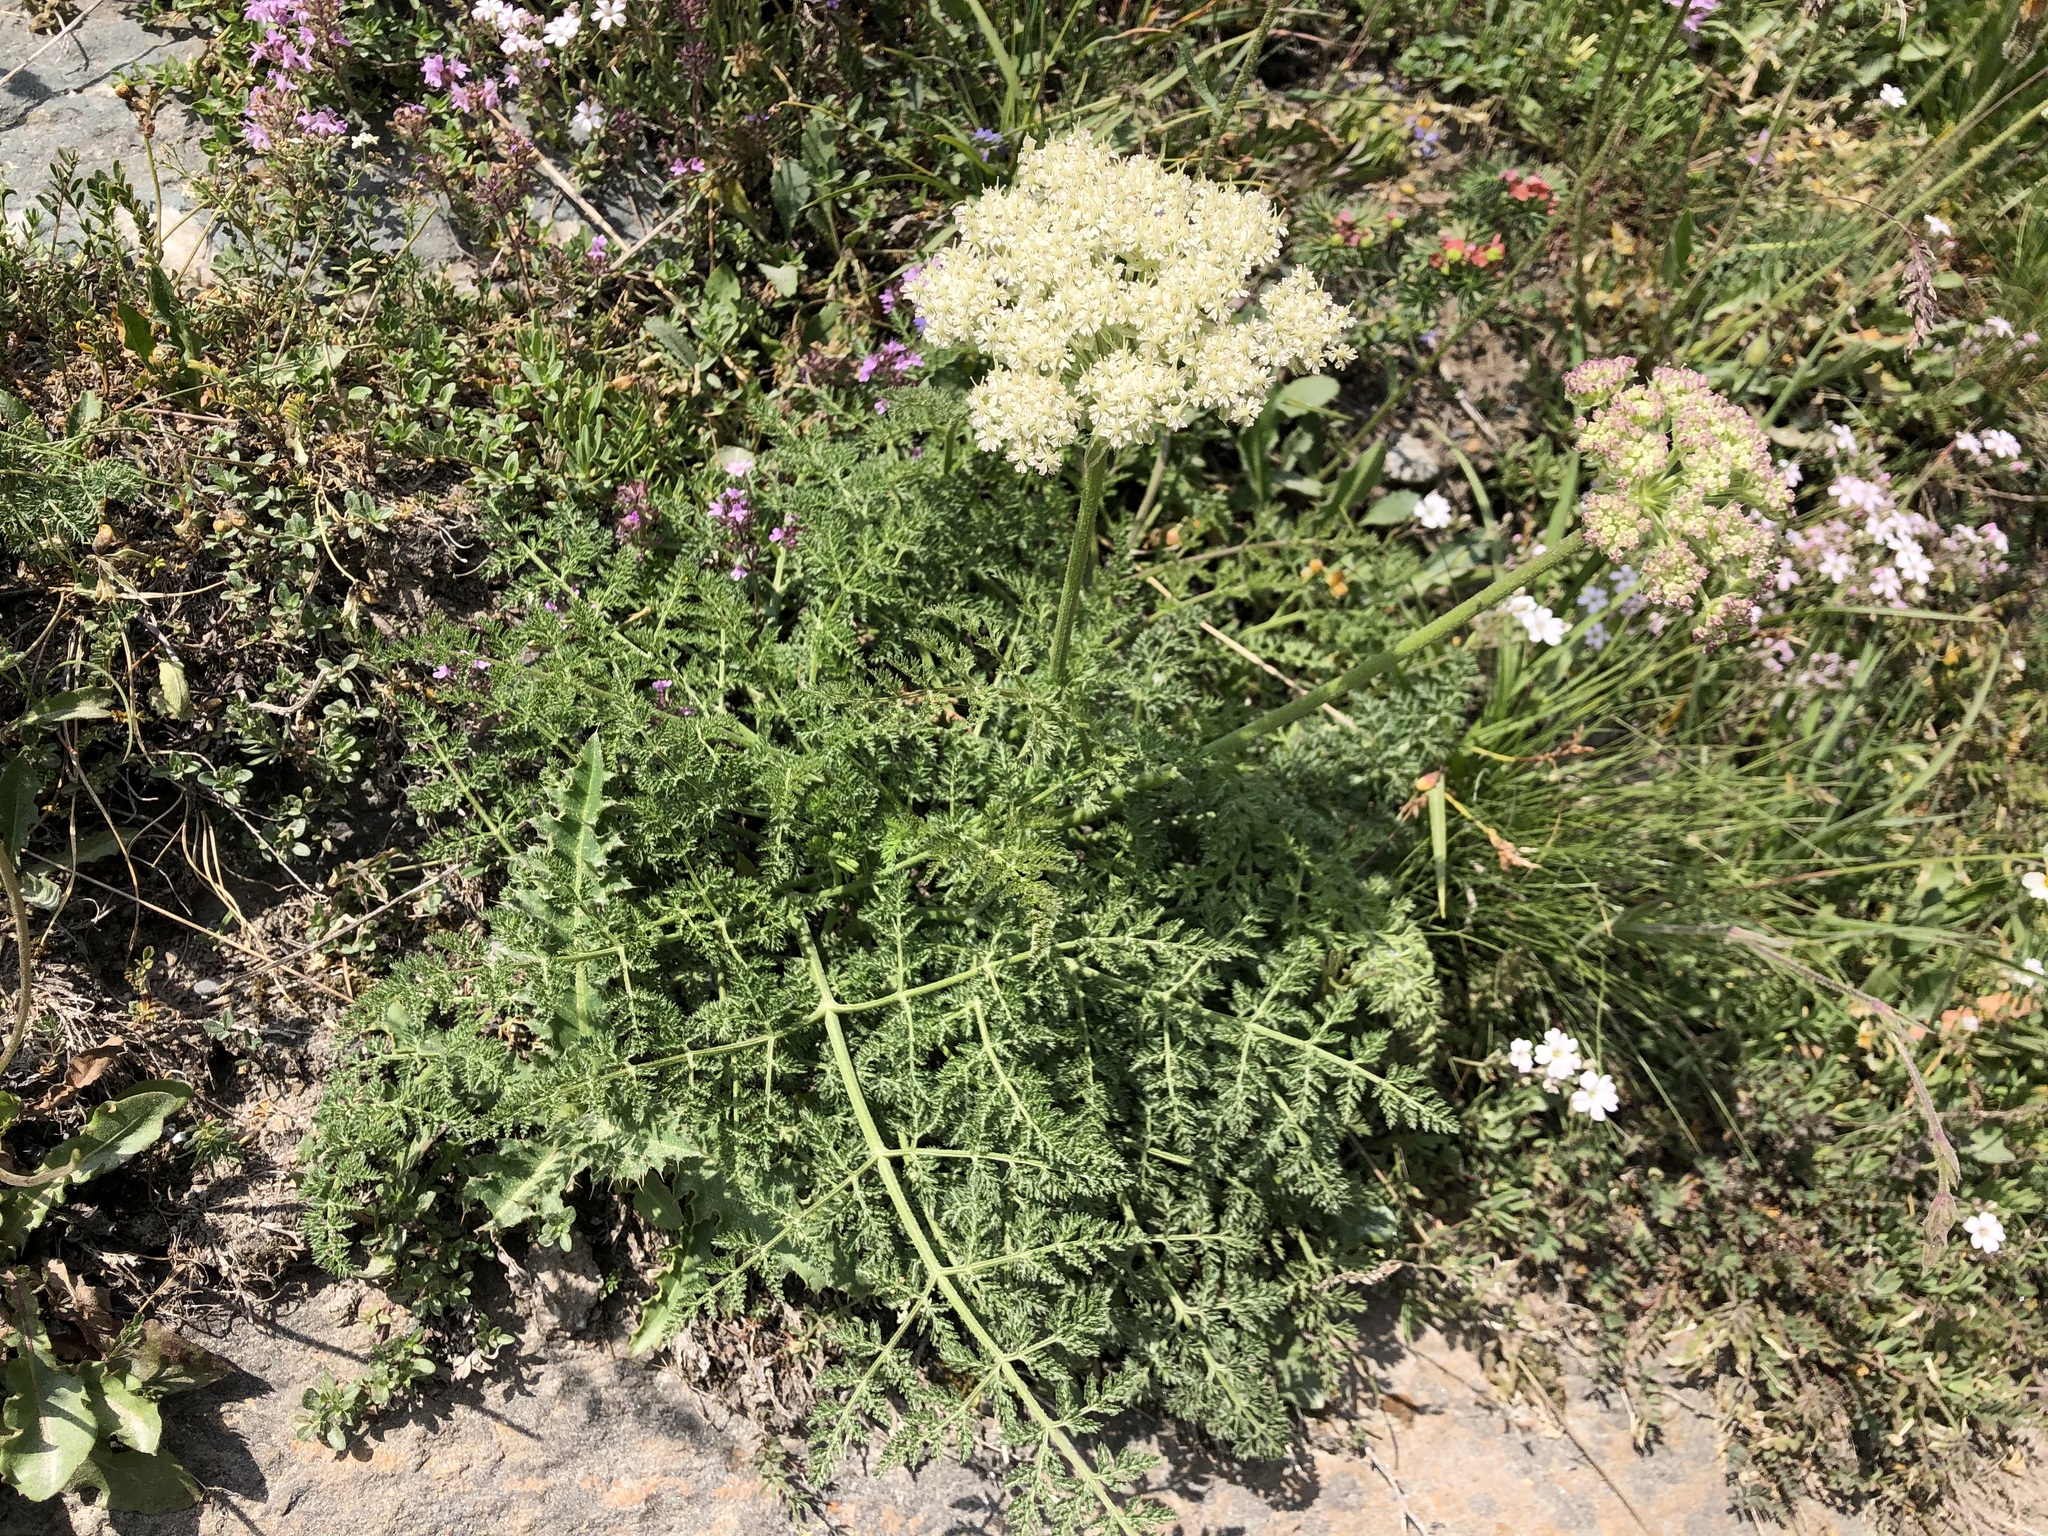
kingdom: Plantae
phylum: Tracheophyta
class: Magnoliopsida
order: Apiales
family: Apiaceae
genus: Laserpitium
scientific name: Laserpitium halleri
